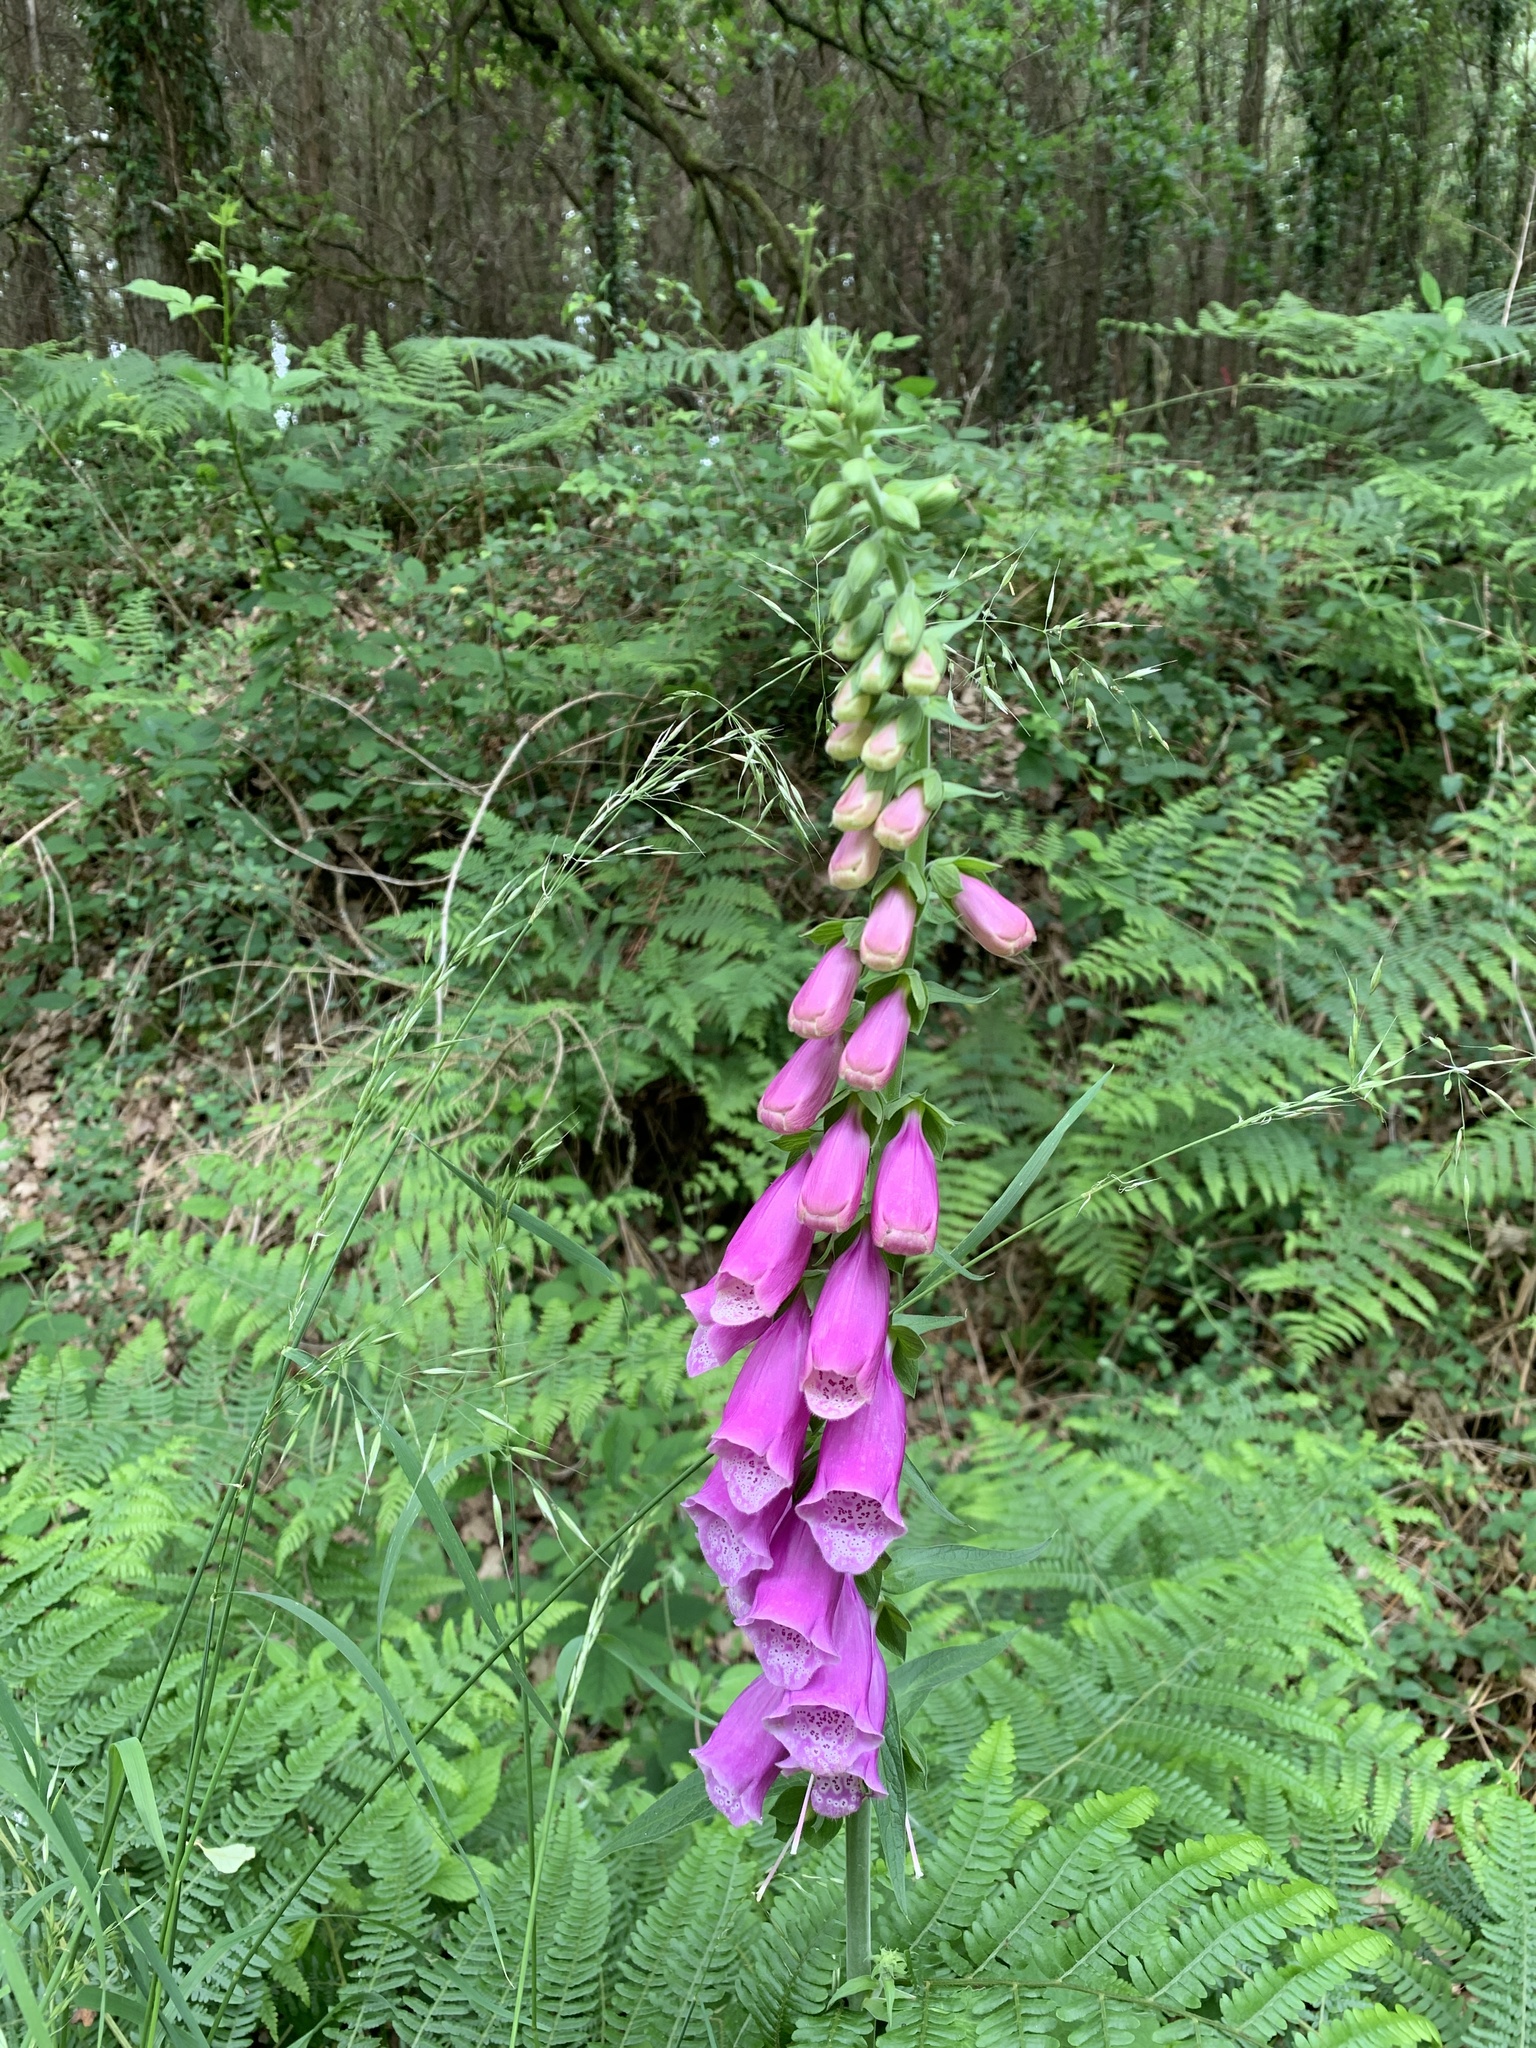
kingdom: Plantae
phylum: Tracheophyta
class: Magnoliopsida
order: Lamiales
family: Plantaginaceae
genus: Digitalis
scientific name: Digitalis purpurea
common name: Foxglove
